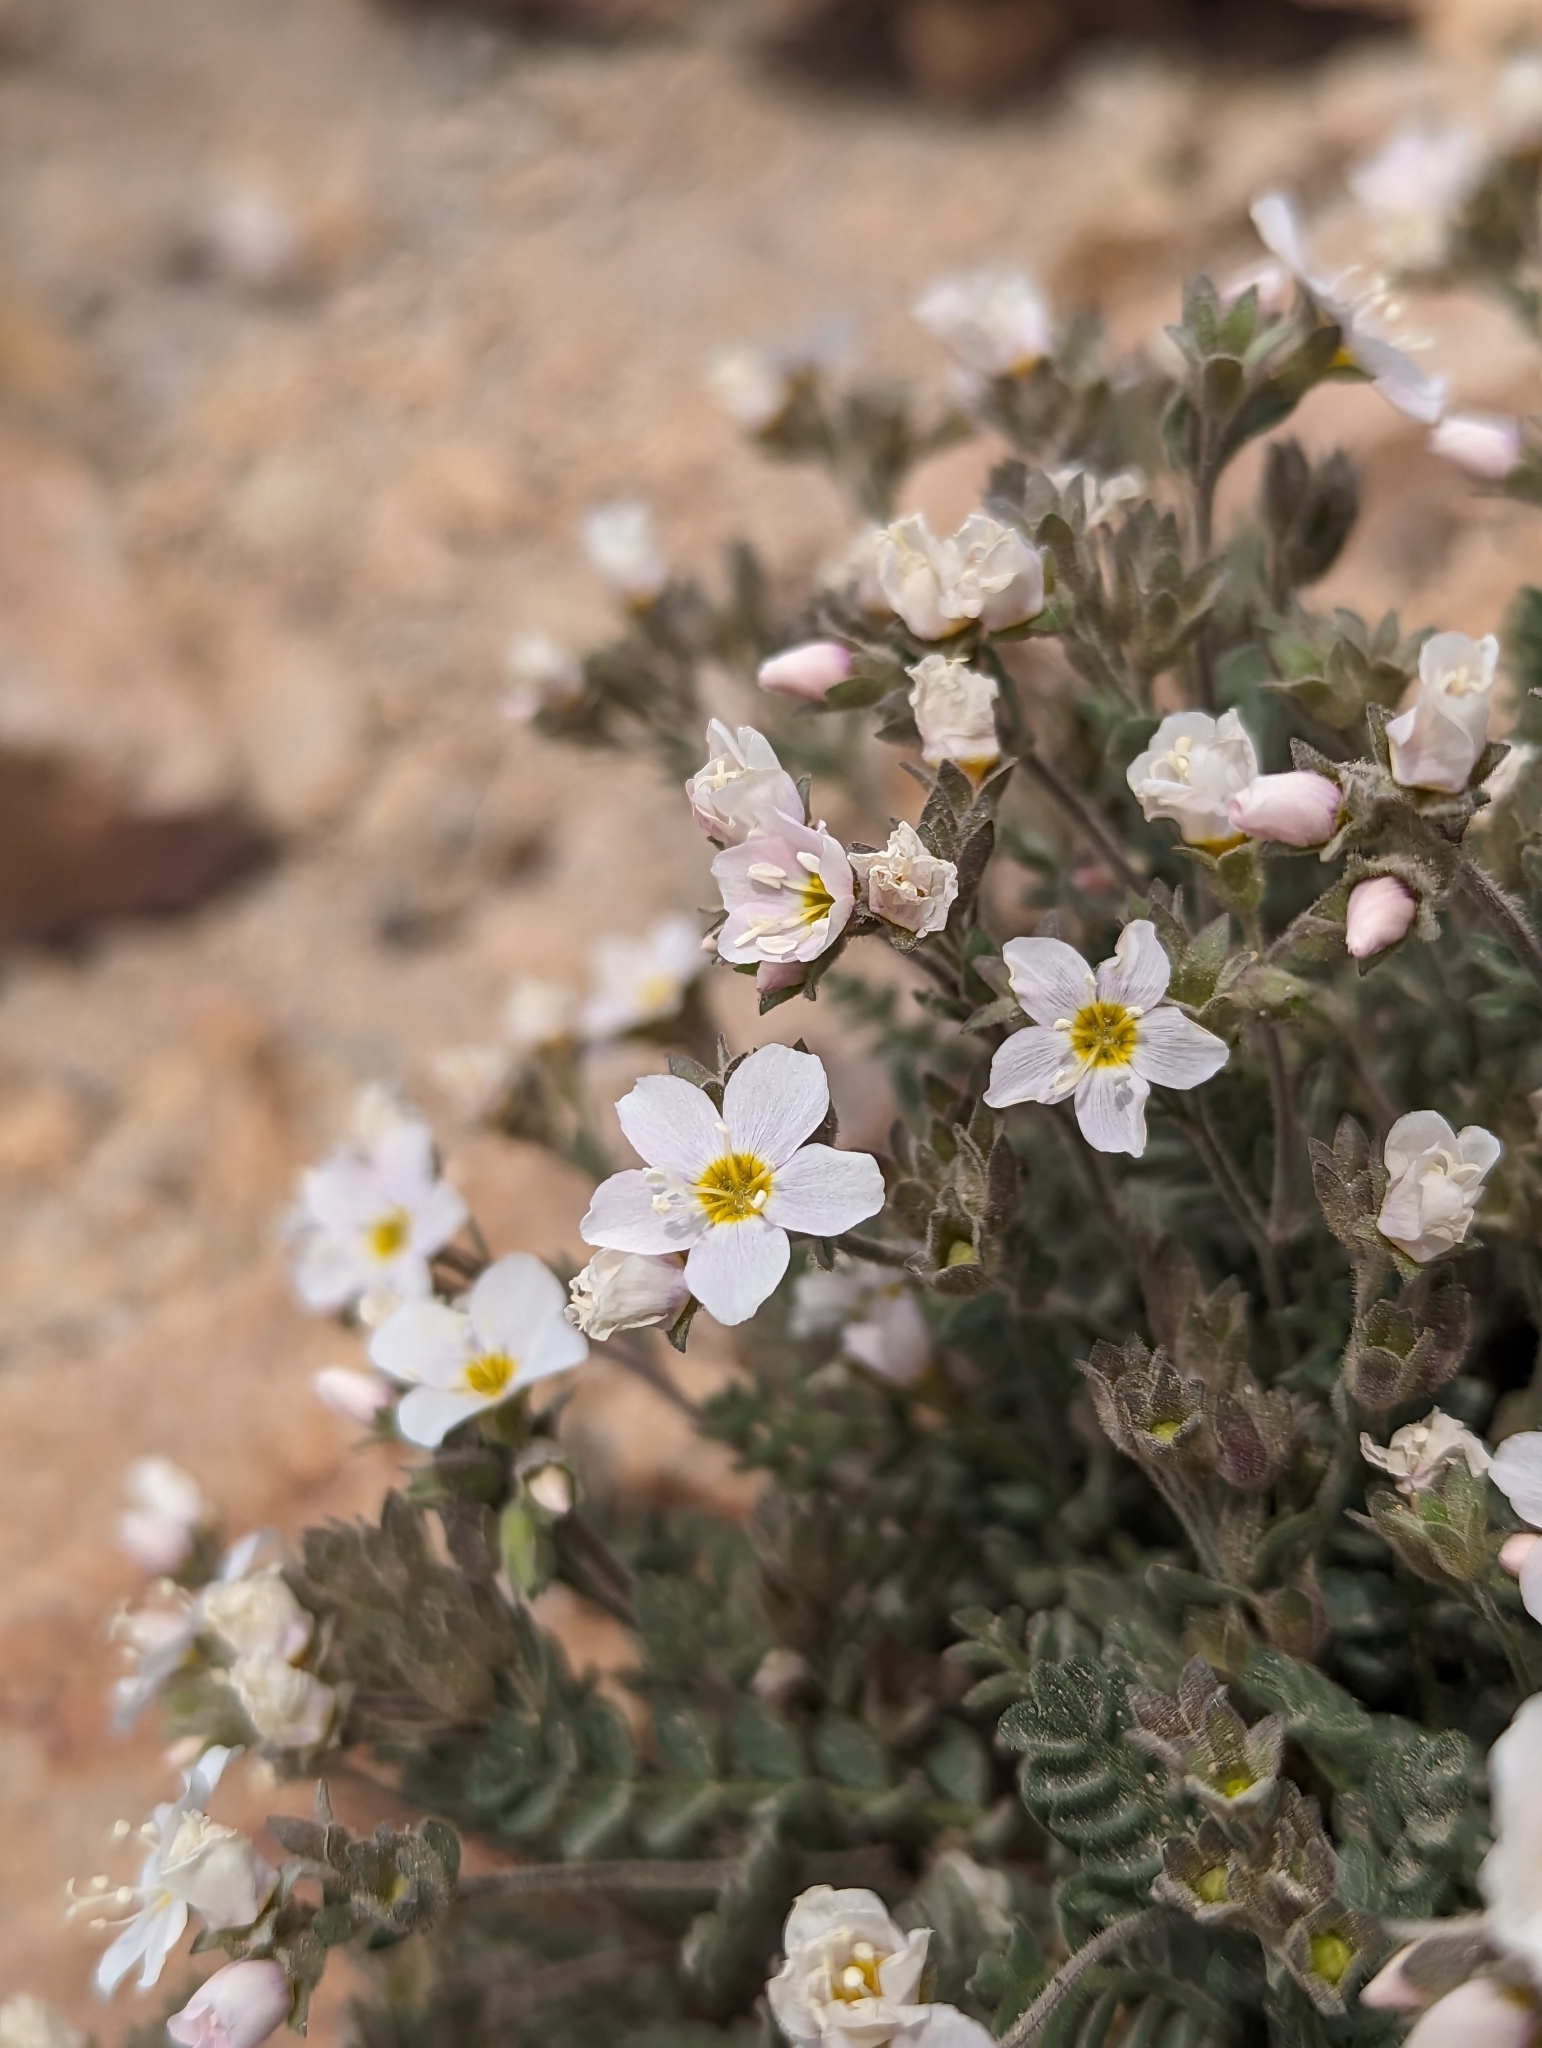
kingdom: Plantae
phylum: Tracheophyta
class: Magnoliopsida
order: Ericales
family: Polemoniaceae
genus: Polemonium
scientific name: Polemonium pulcherrimum
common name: Short jacob's-ladder
